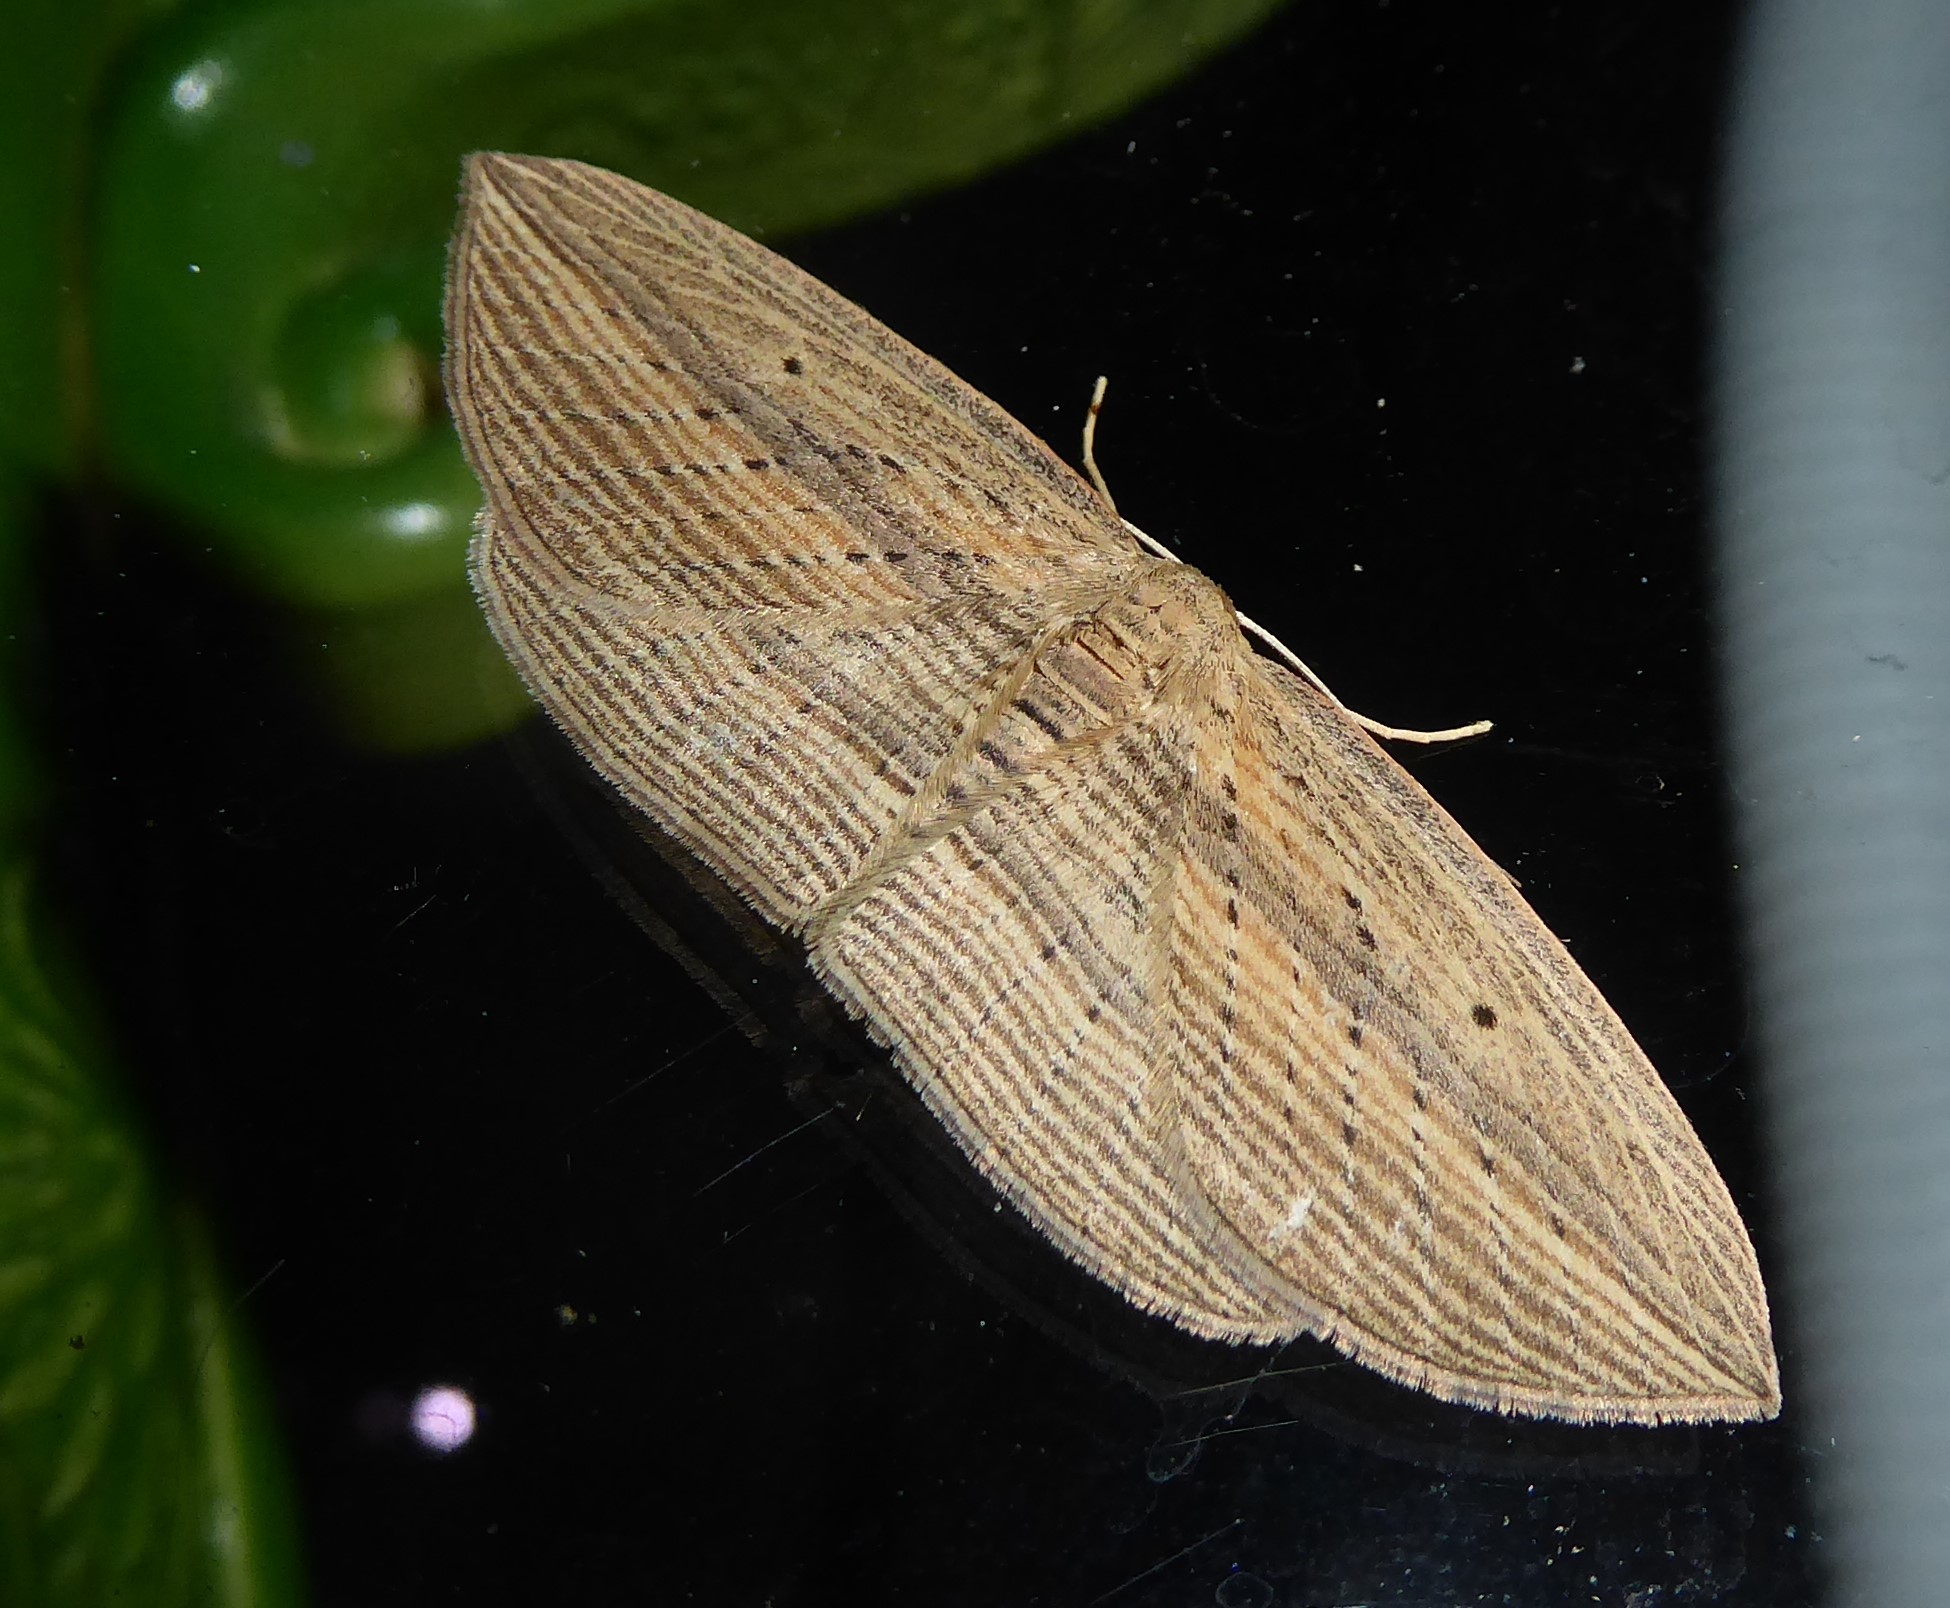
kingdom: Animalia
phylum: Arthropoda
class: Insecta
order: Lepidoptera
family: Geometridae
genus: Epiphryne
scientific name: Epiphryne verriculata
